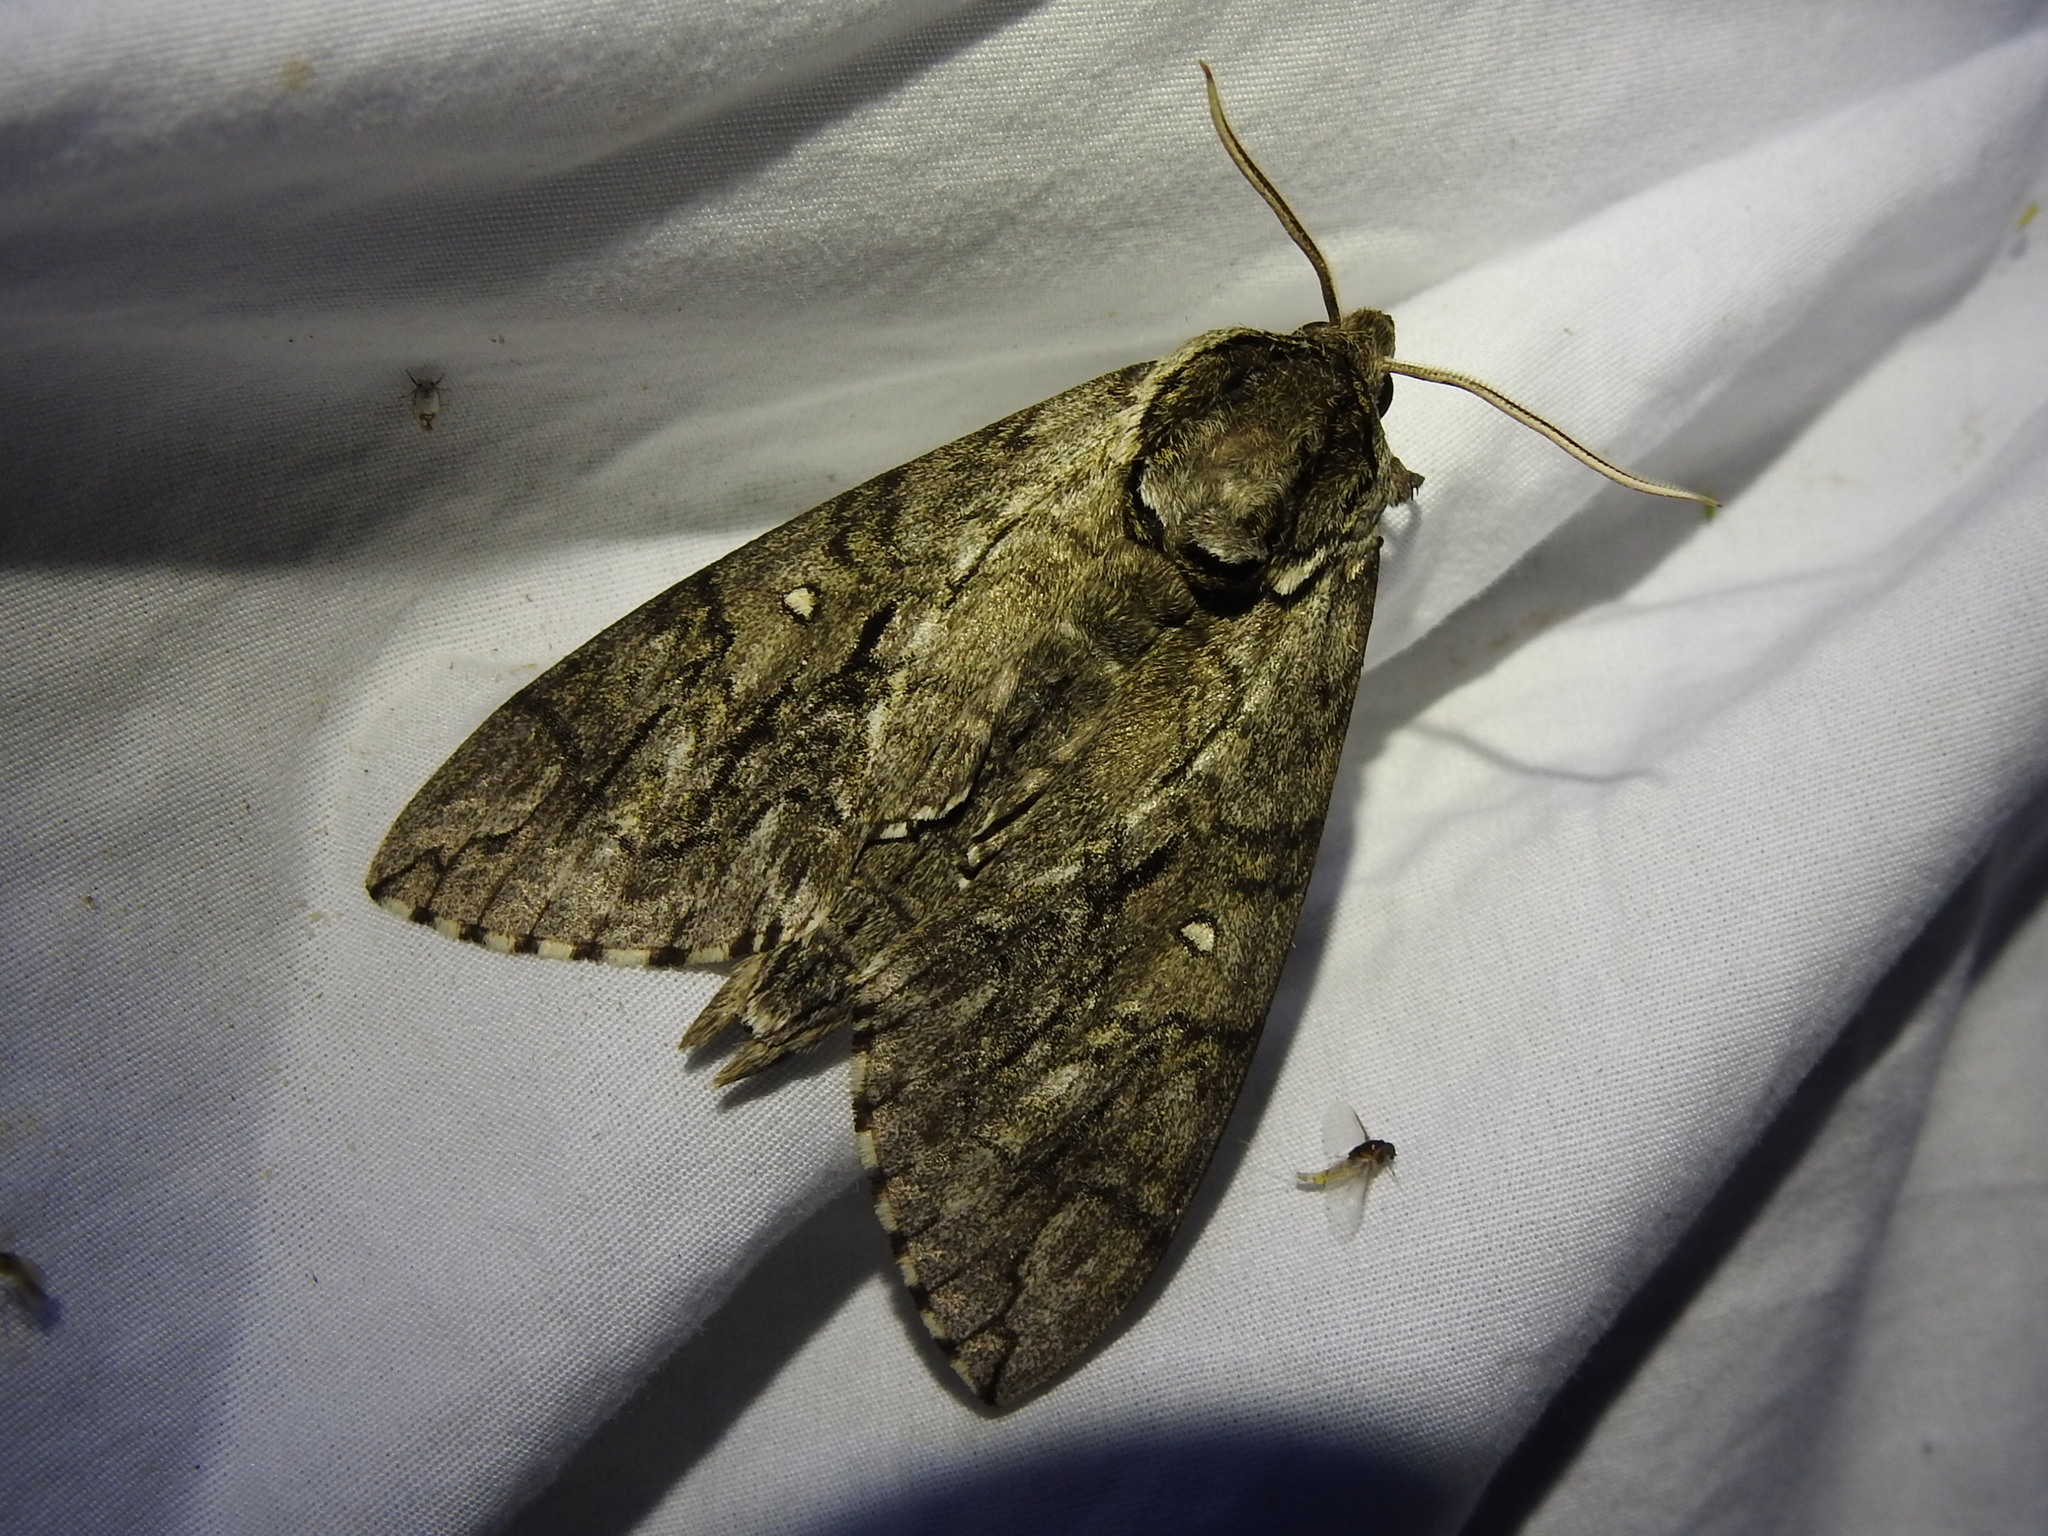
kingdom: Animalia
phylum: Arthropoda
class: Insecta
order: Lepidoptera
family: Sphingidae
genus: Ceratomia
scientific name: Ceratomia undulosa
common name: Waved sphinx
